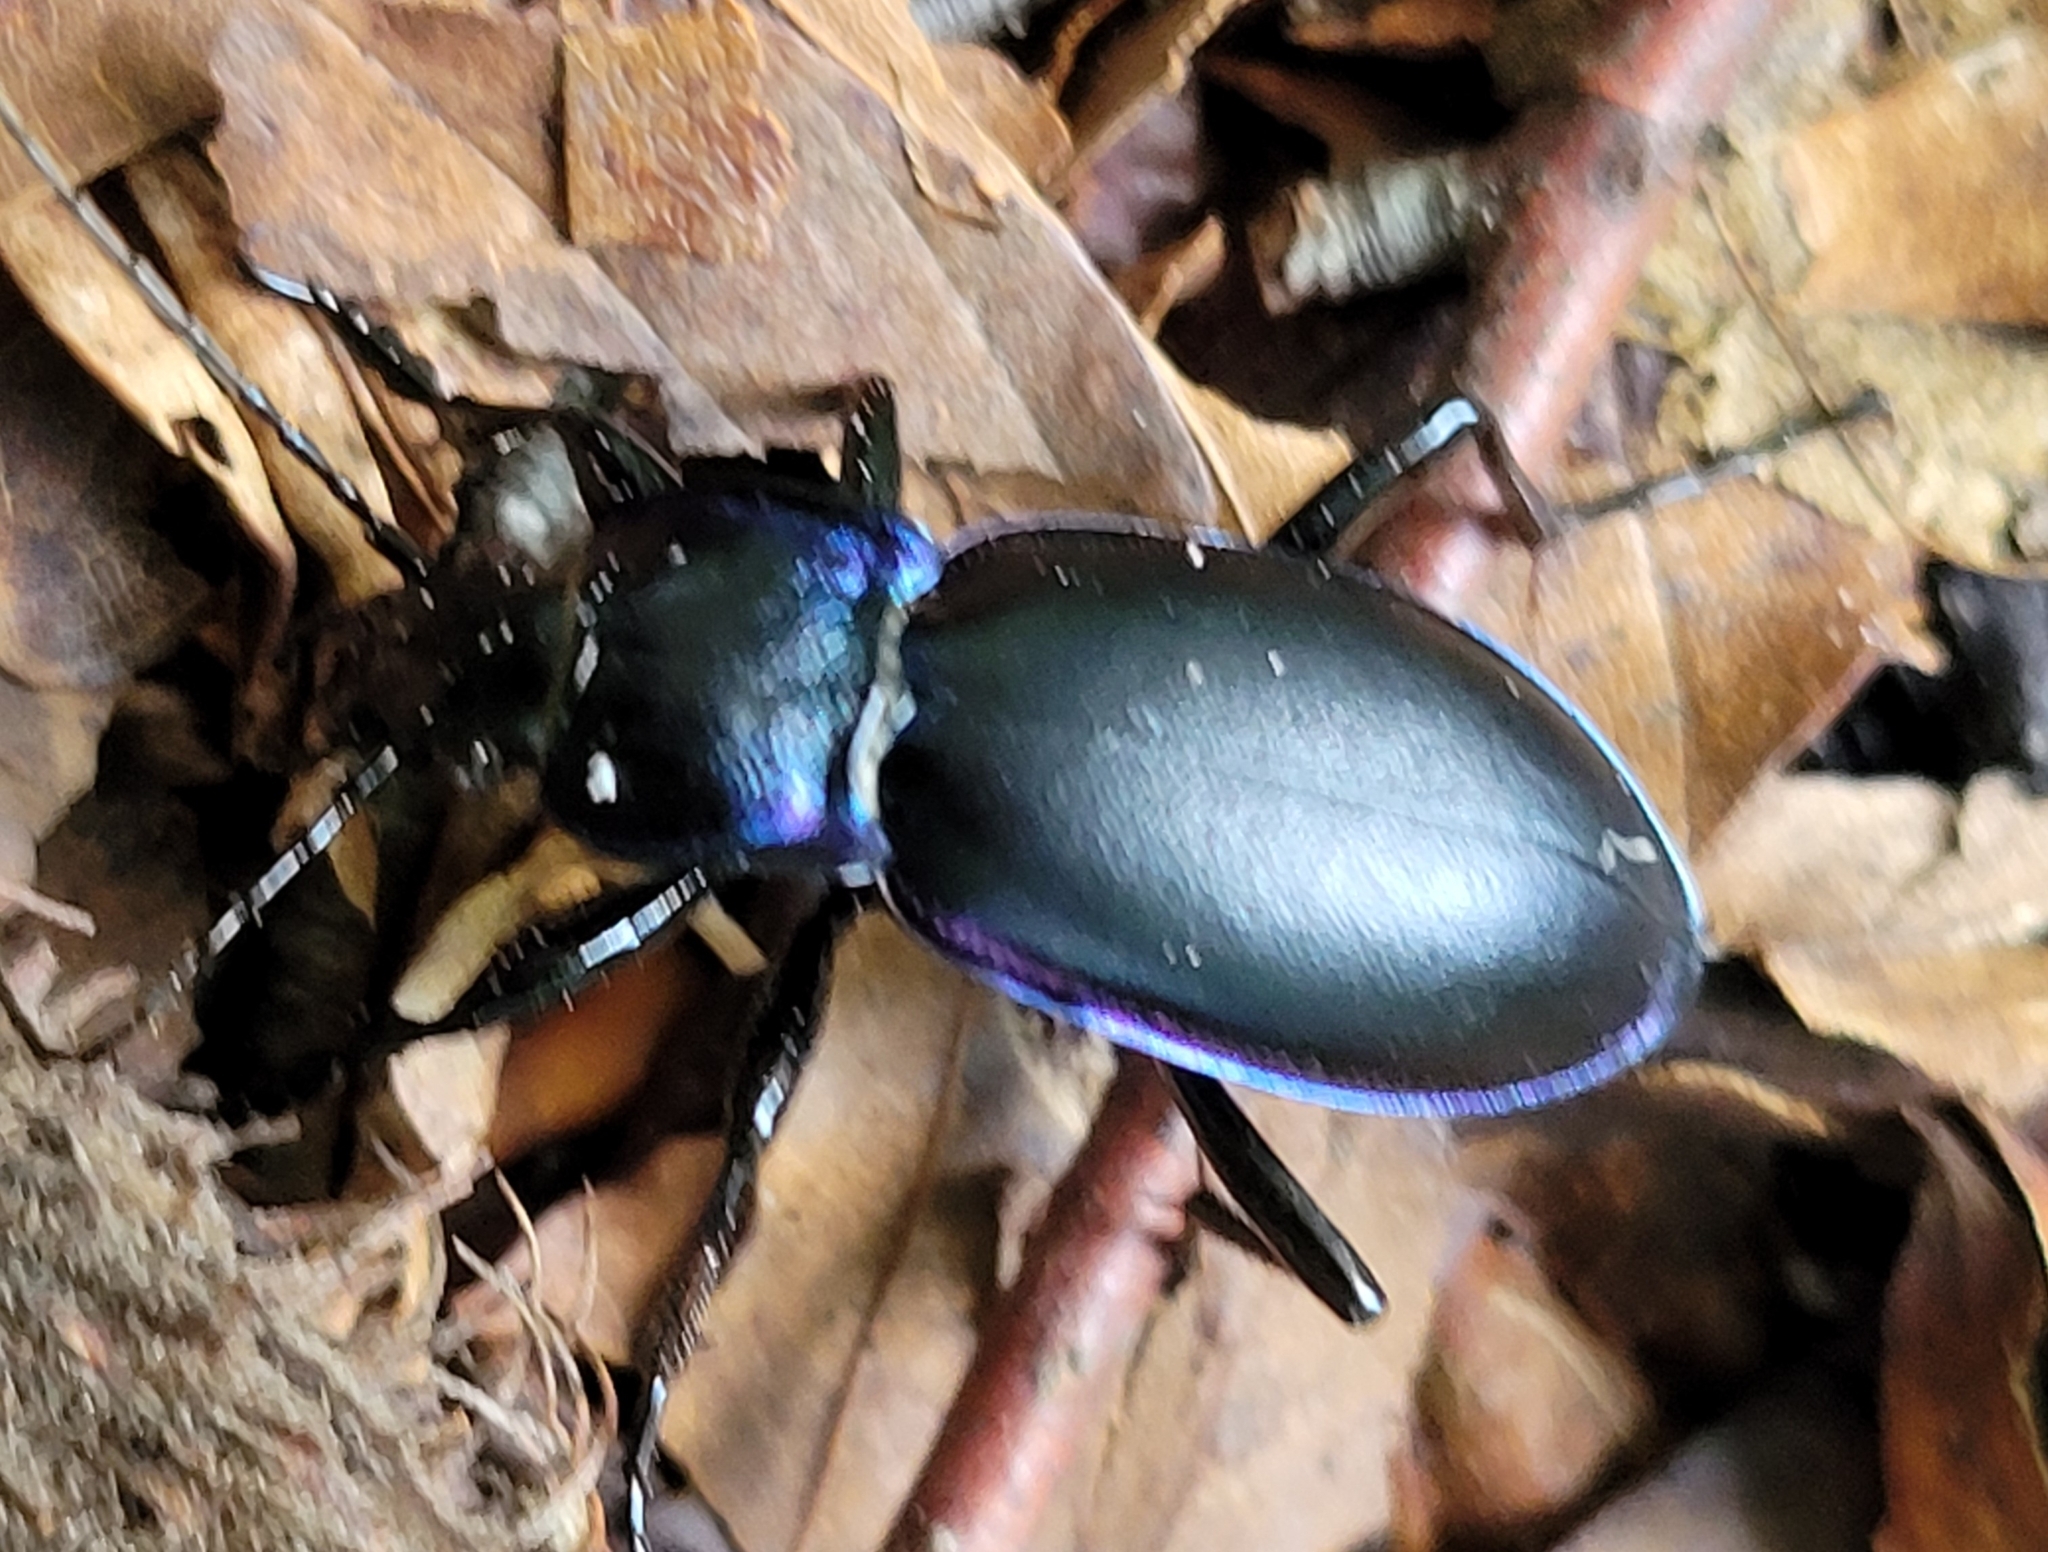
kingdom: Animalia
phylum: Arthropoda
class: Insecta
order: Coleoptera
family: Carabidae
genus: Carabus
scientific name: Carabus violaceus
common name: Violet ground beetle
